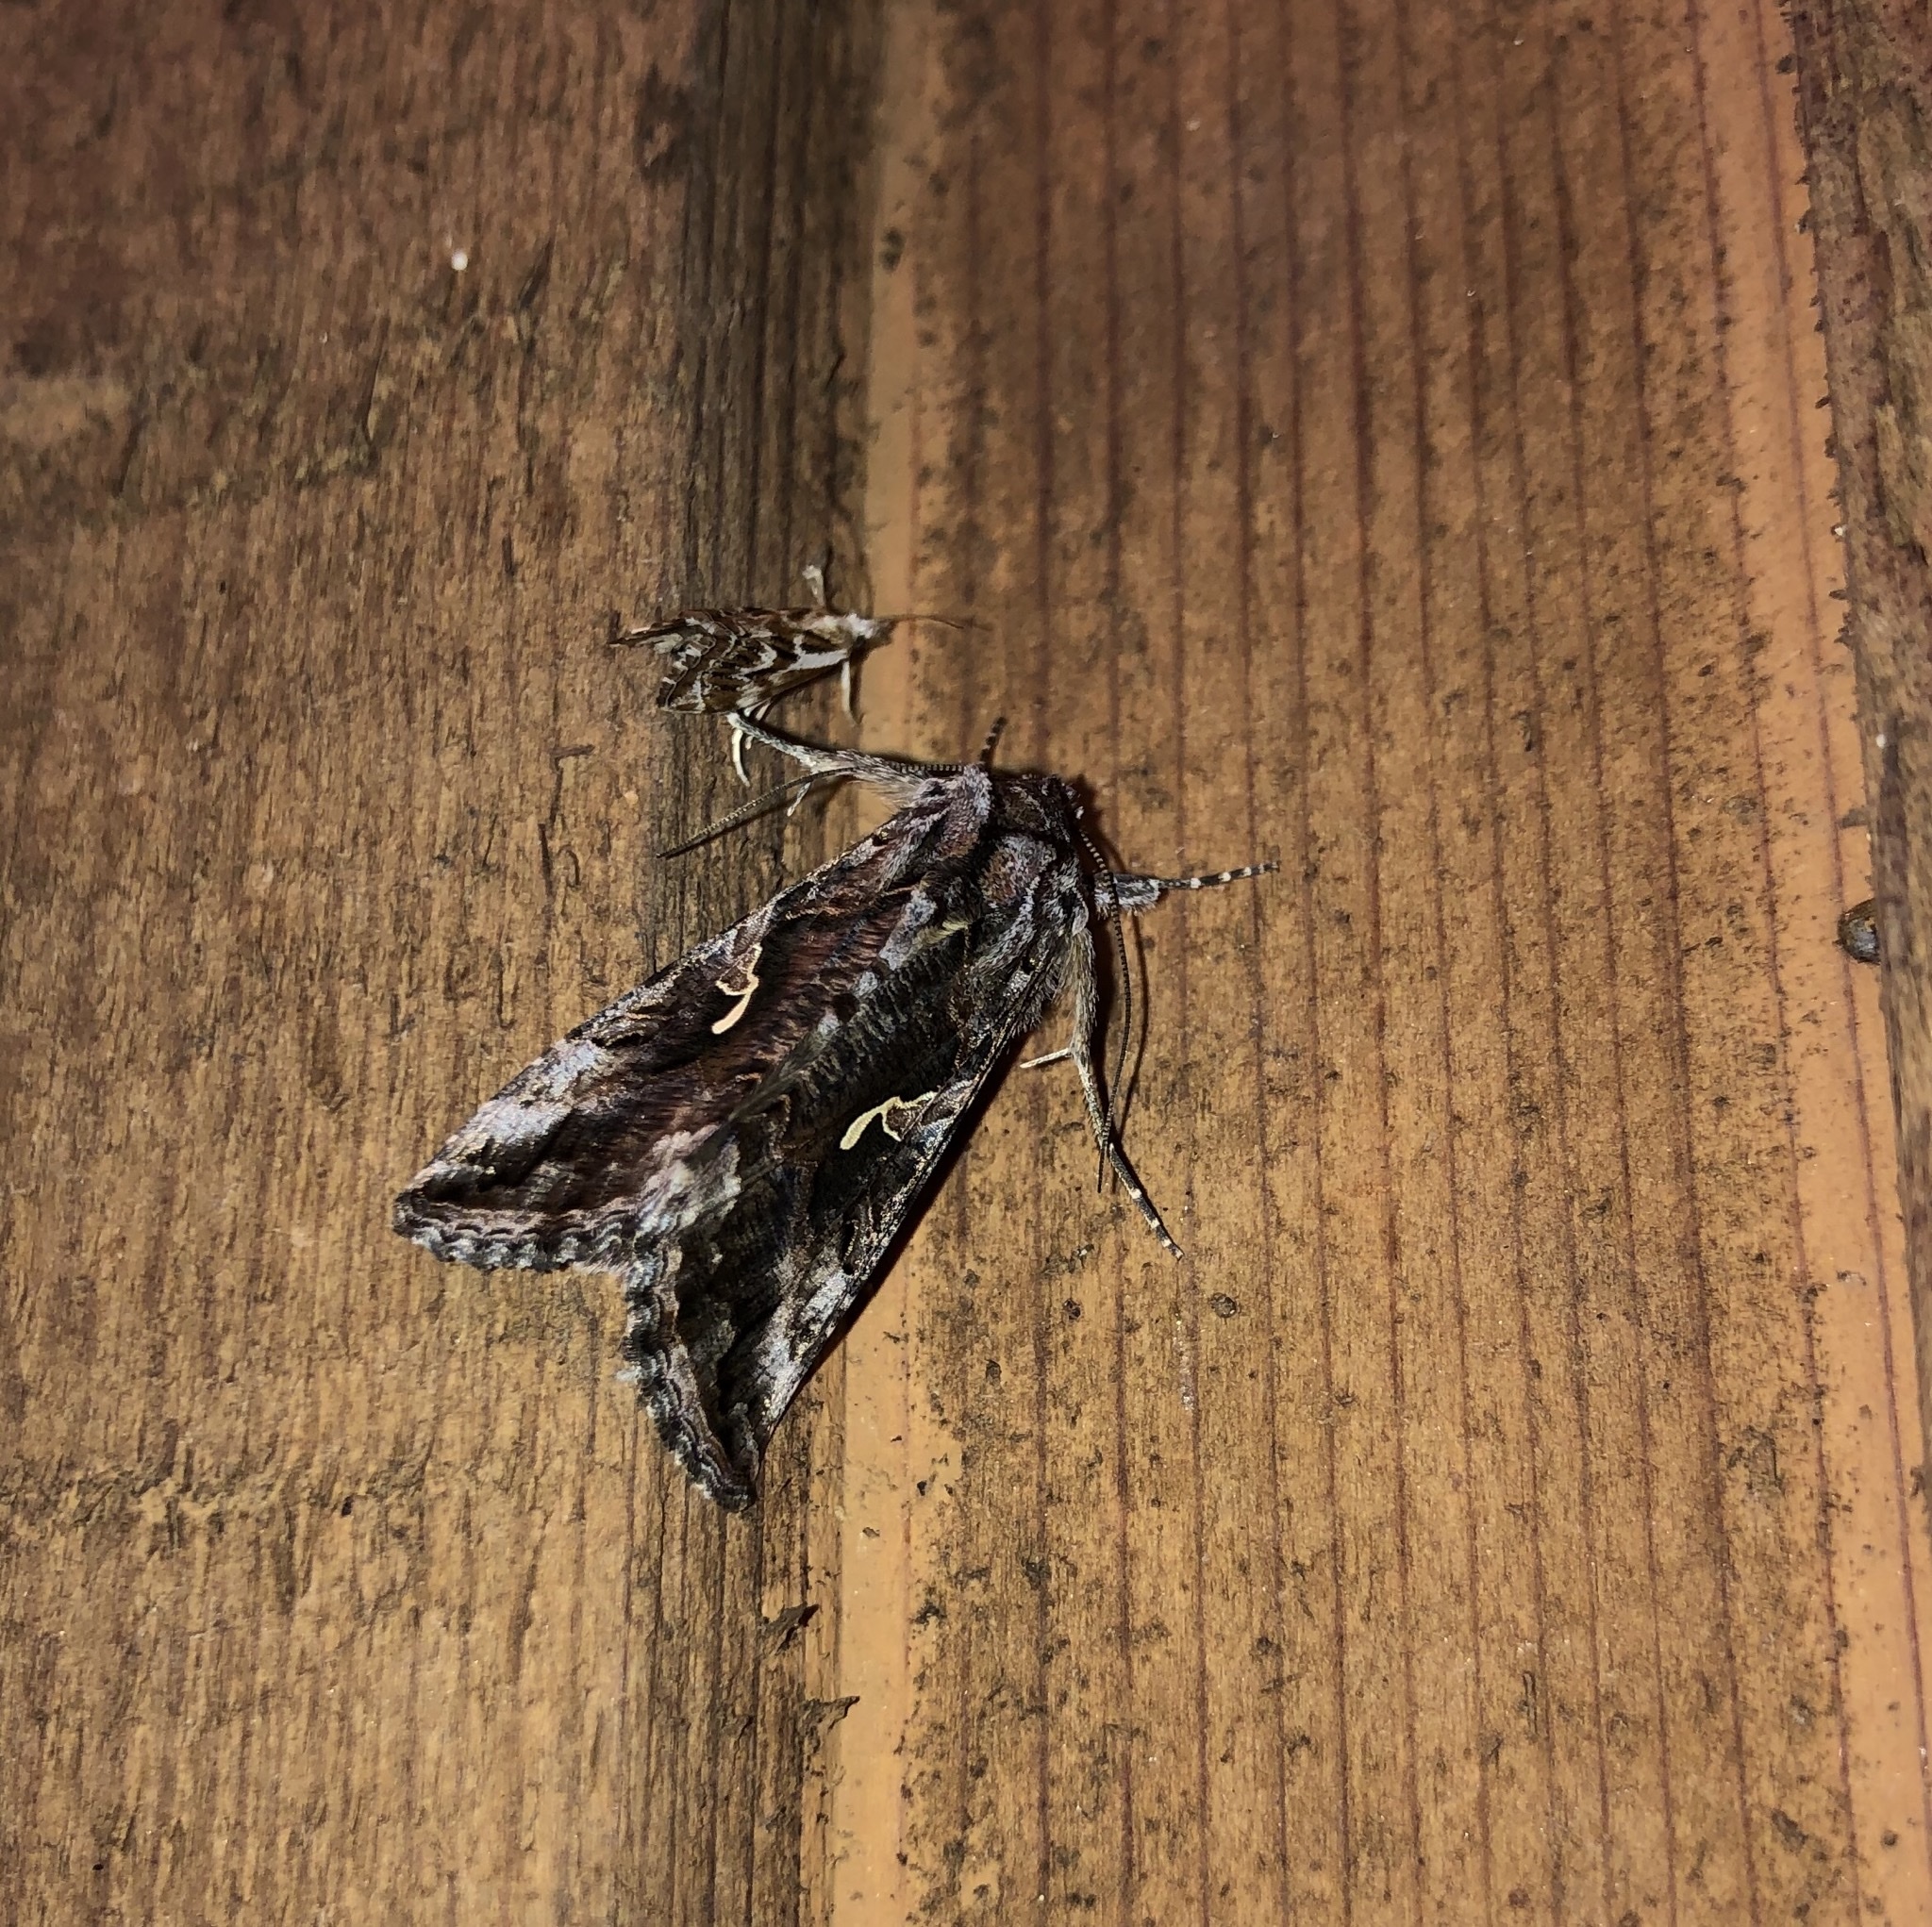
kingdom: Animalia
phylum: Arthropoda
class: Insecta
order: Lepidoptera
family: Noctuidae
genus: Autographa
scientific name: Autographa californica
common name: Alfalfa looper
